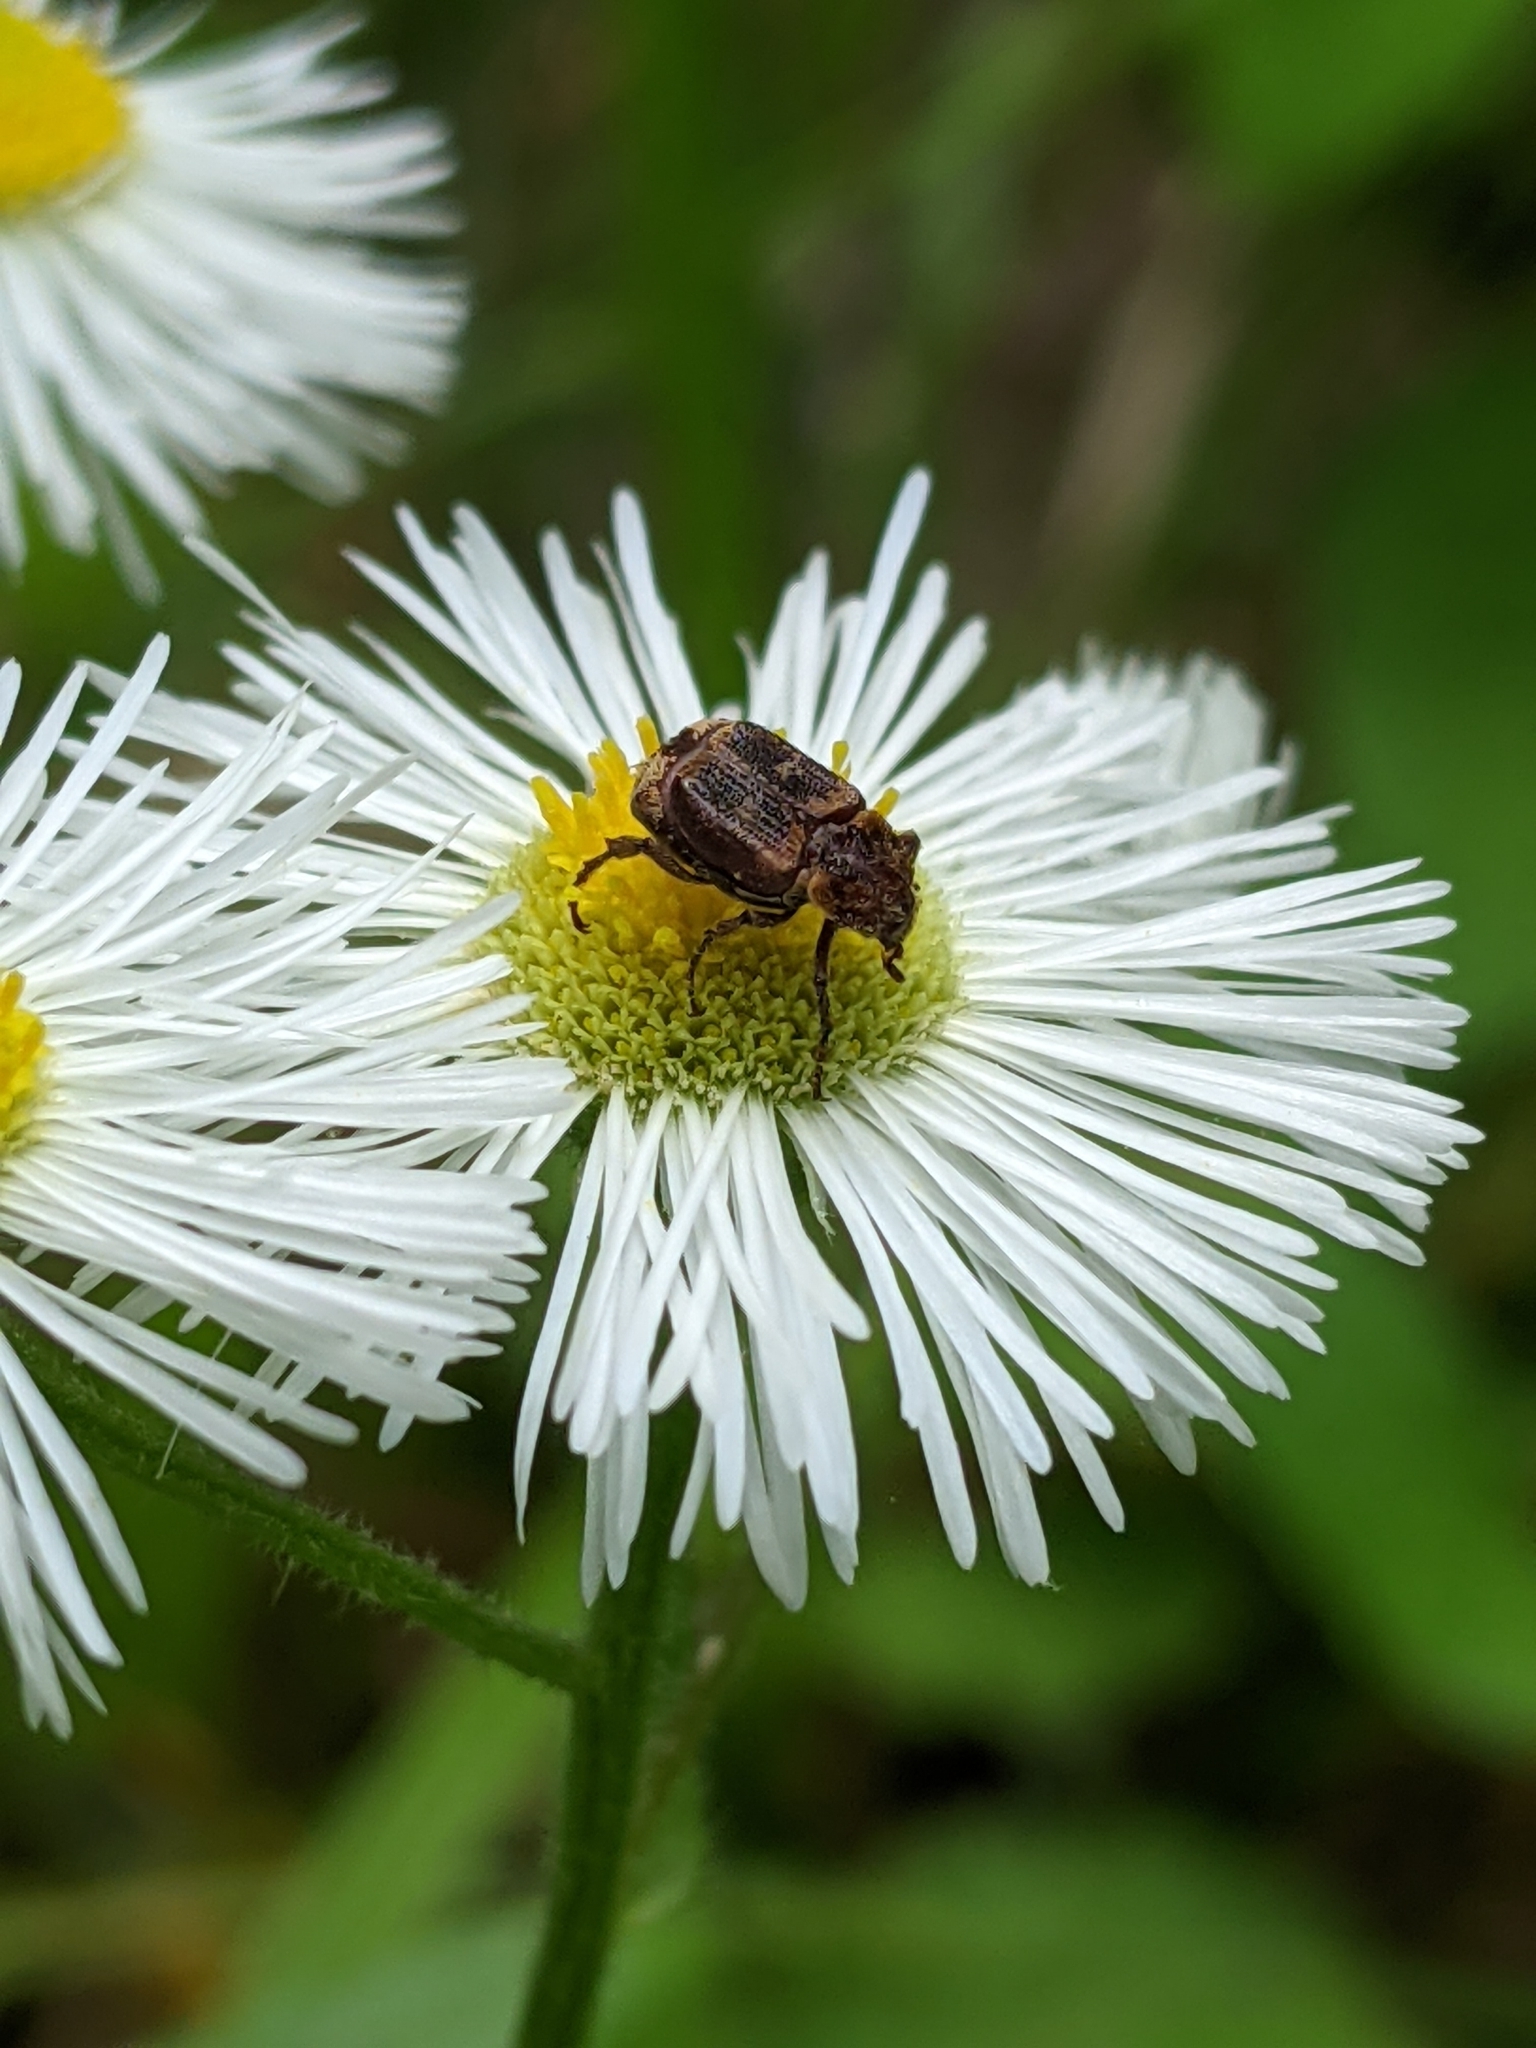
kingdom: Animalia
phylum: Arthropoda
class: Insecta
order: Coleoptera
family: Scarabaeidae
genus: Valgus
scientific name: Valgus canaliculatus
